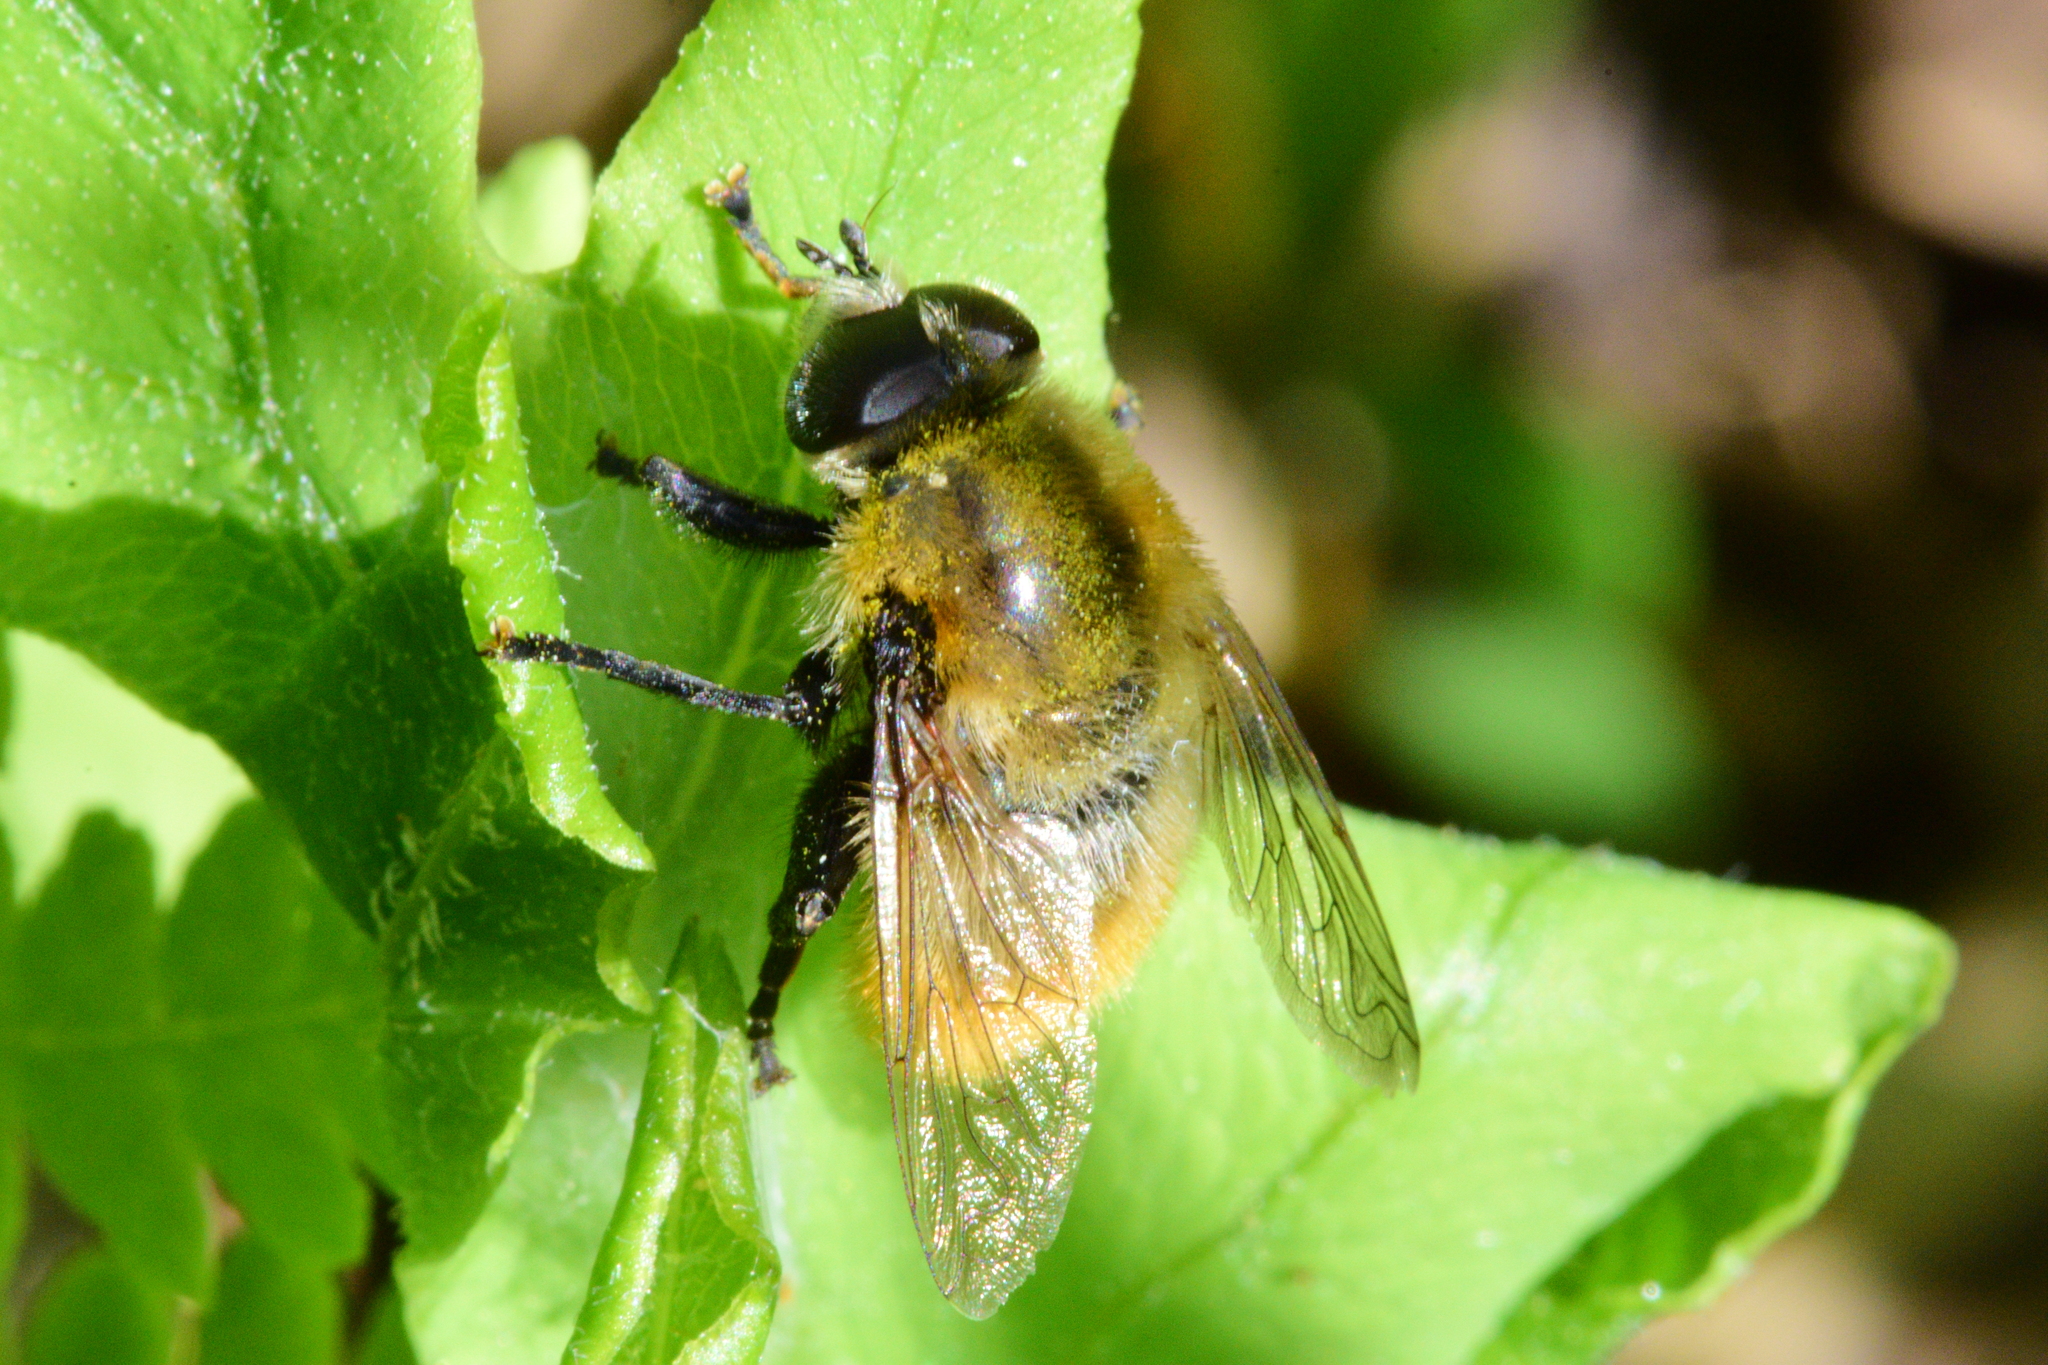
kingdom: Animalia
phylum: Arthropoda
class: Insecta
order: Diptera
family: Syrphidae
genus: Merodon
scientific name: Merodon equestris
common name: Greater bulb-fly
